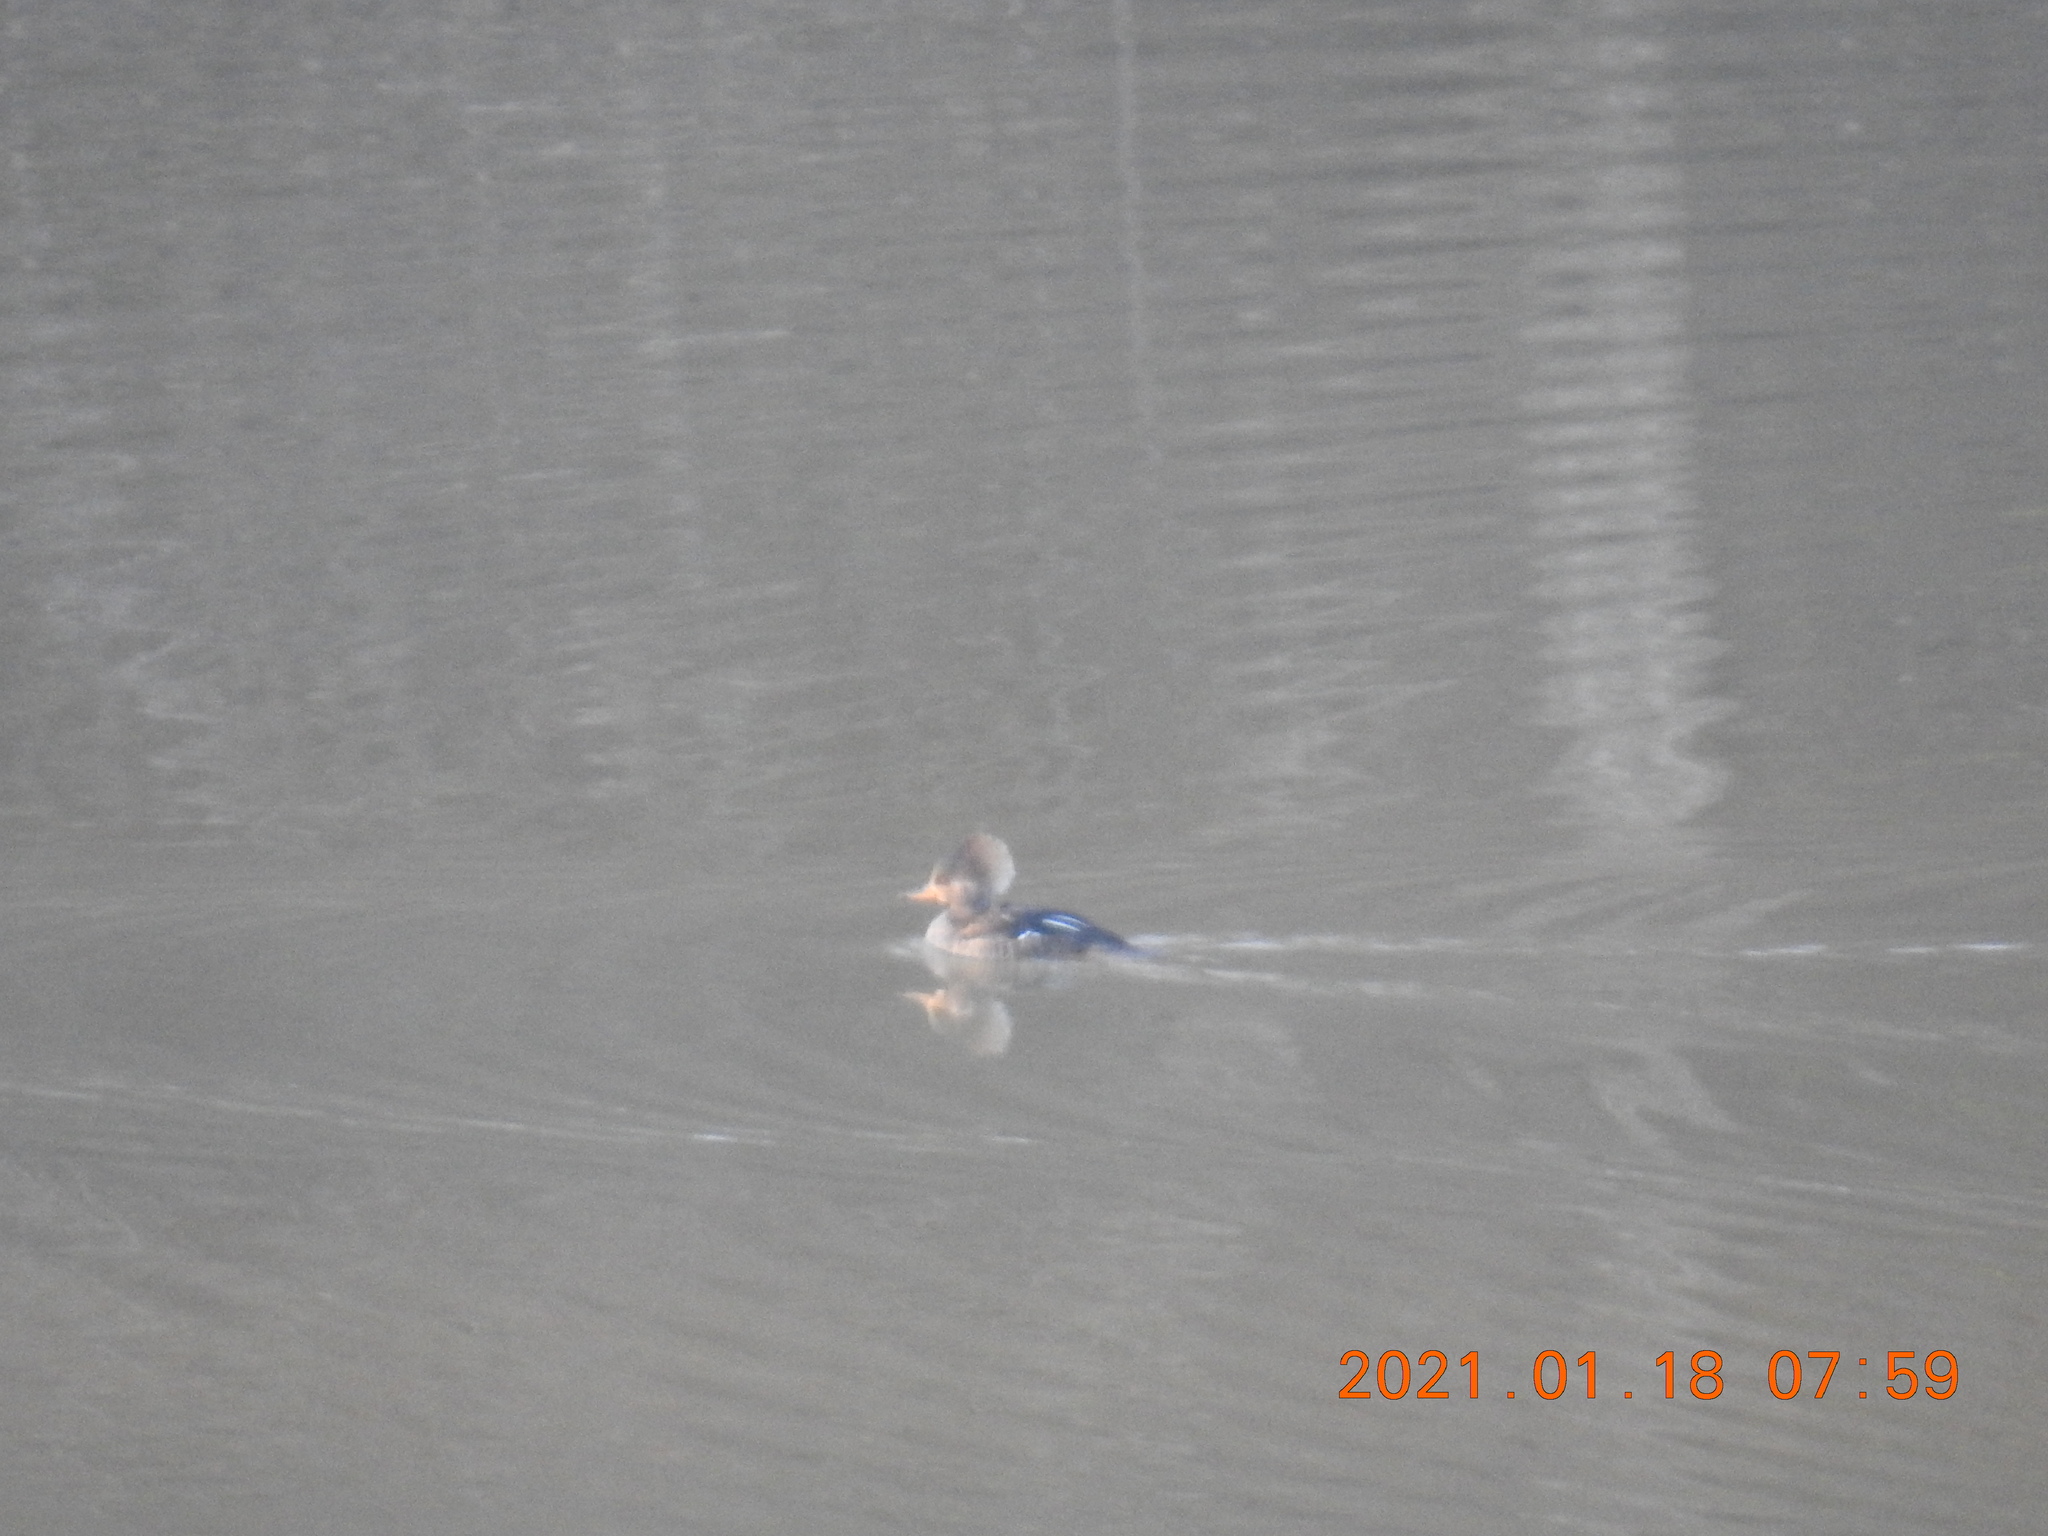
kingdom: Animalia
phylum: Chordata
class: Aves
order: Anseriformes
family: Anatidae
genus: Lophodytes
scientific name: Lophodytes cucullatus
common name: Hooded merganser
